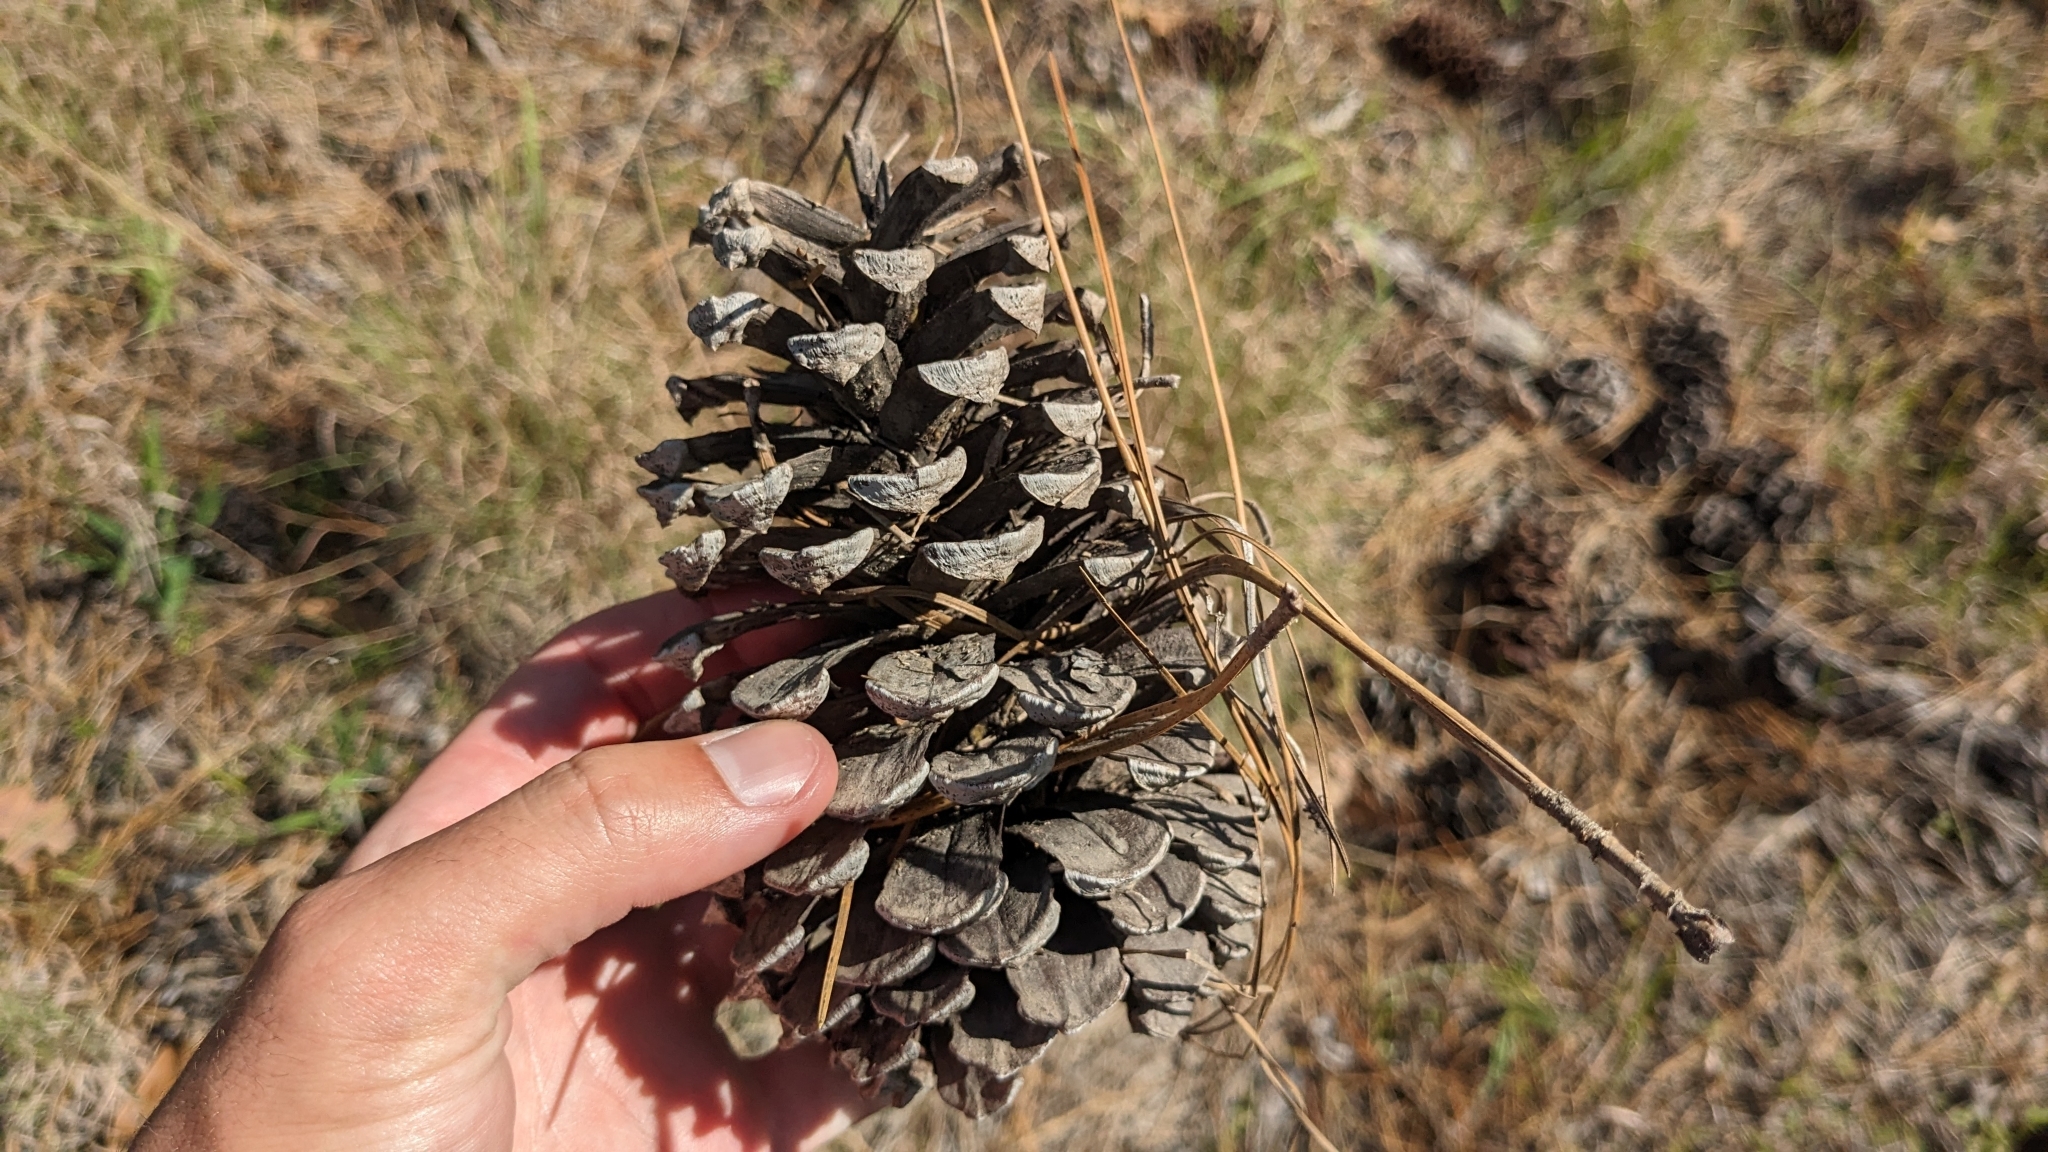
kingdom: Plantae
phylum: Tracheophyta
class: Pinopsida
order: Pinales
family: Pinaceae
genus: Pinus
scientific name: Pinus palustris
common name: Longleaf pine
